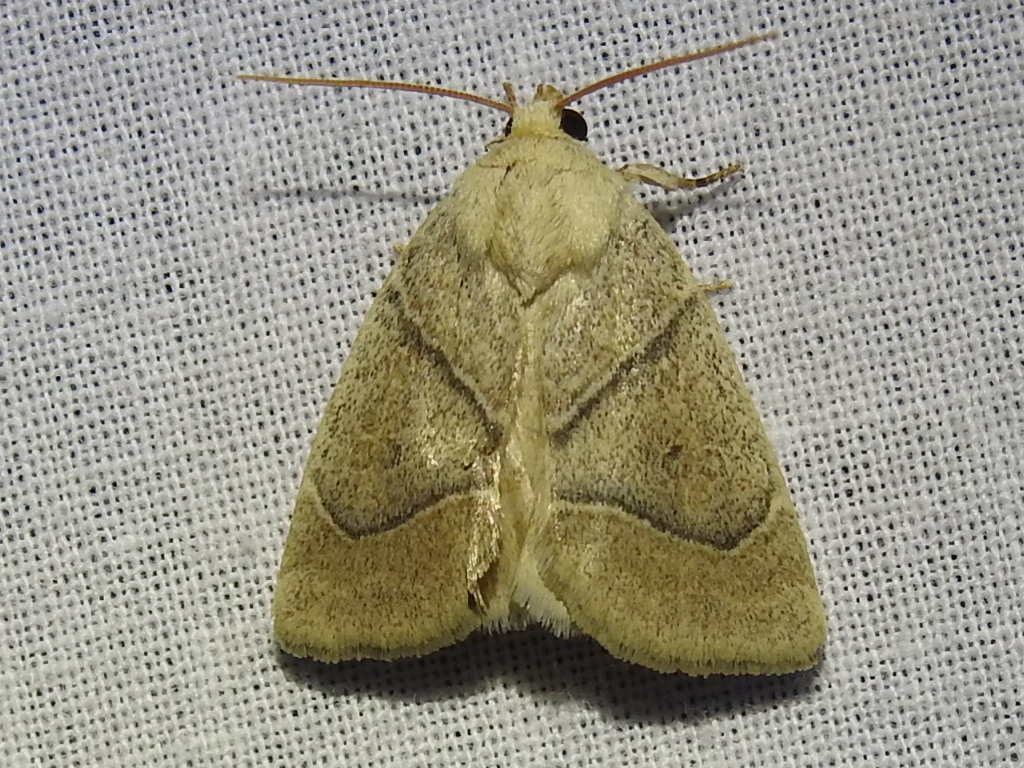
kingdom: Animalia
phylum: Arthropoda
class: Insecta
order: Lepidoptera
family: Noctuidae
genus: Cosmia
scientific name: Cosmia calami
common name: American dun-bar moth
